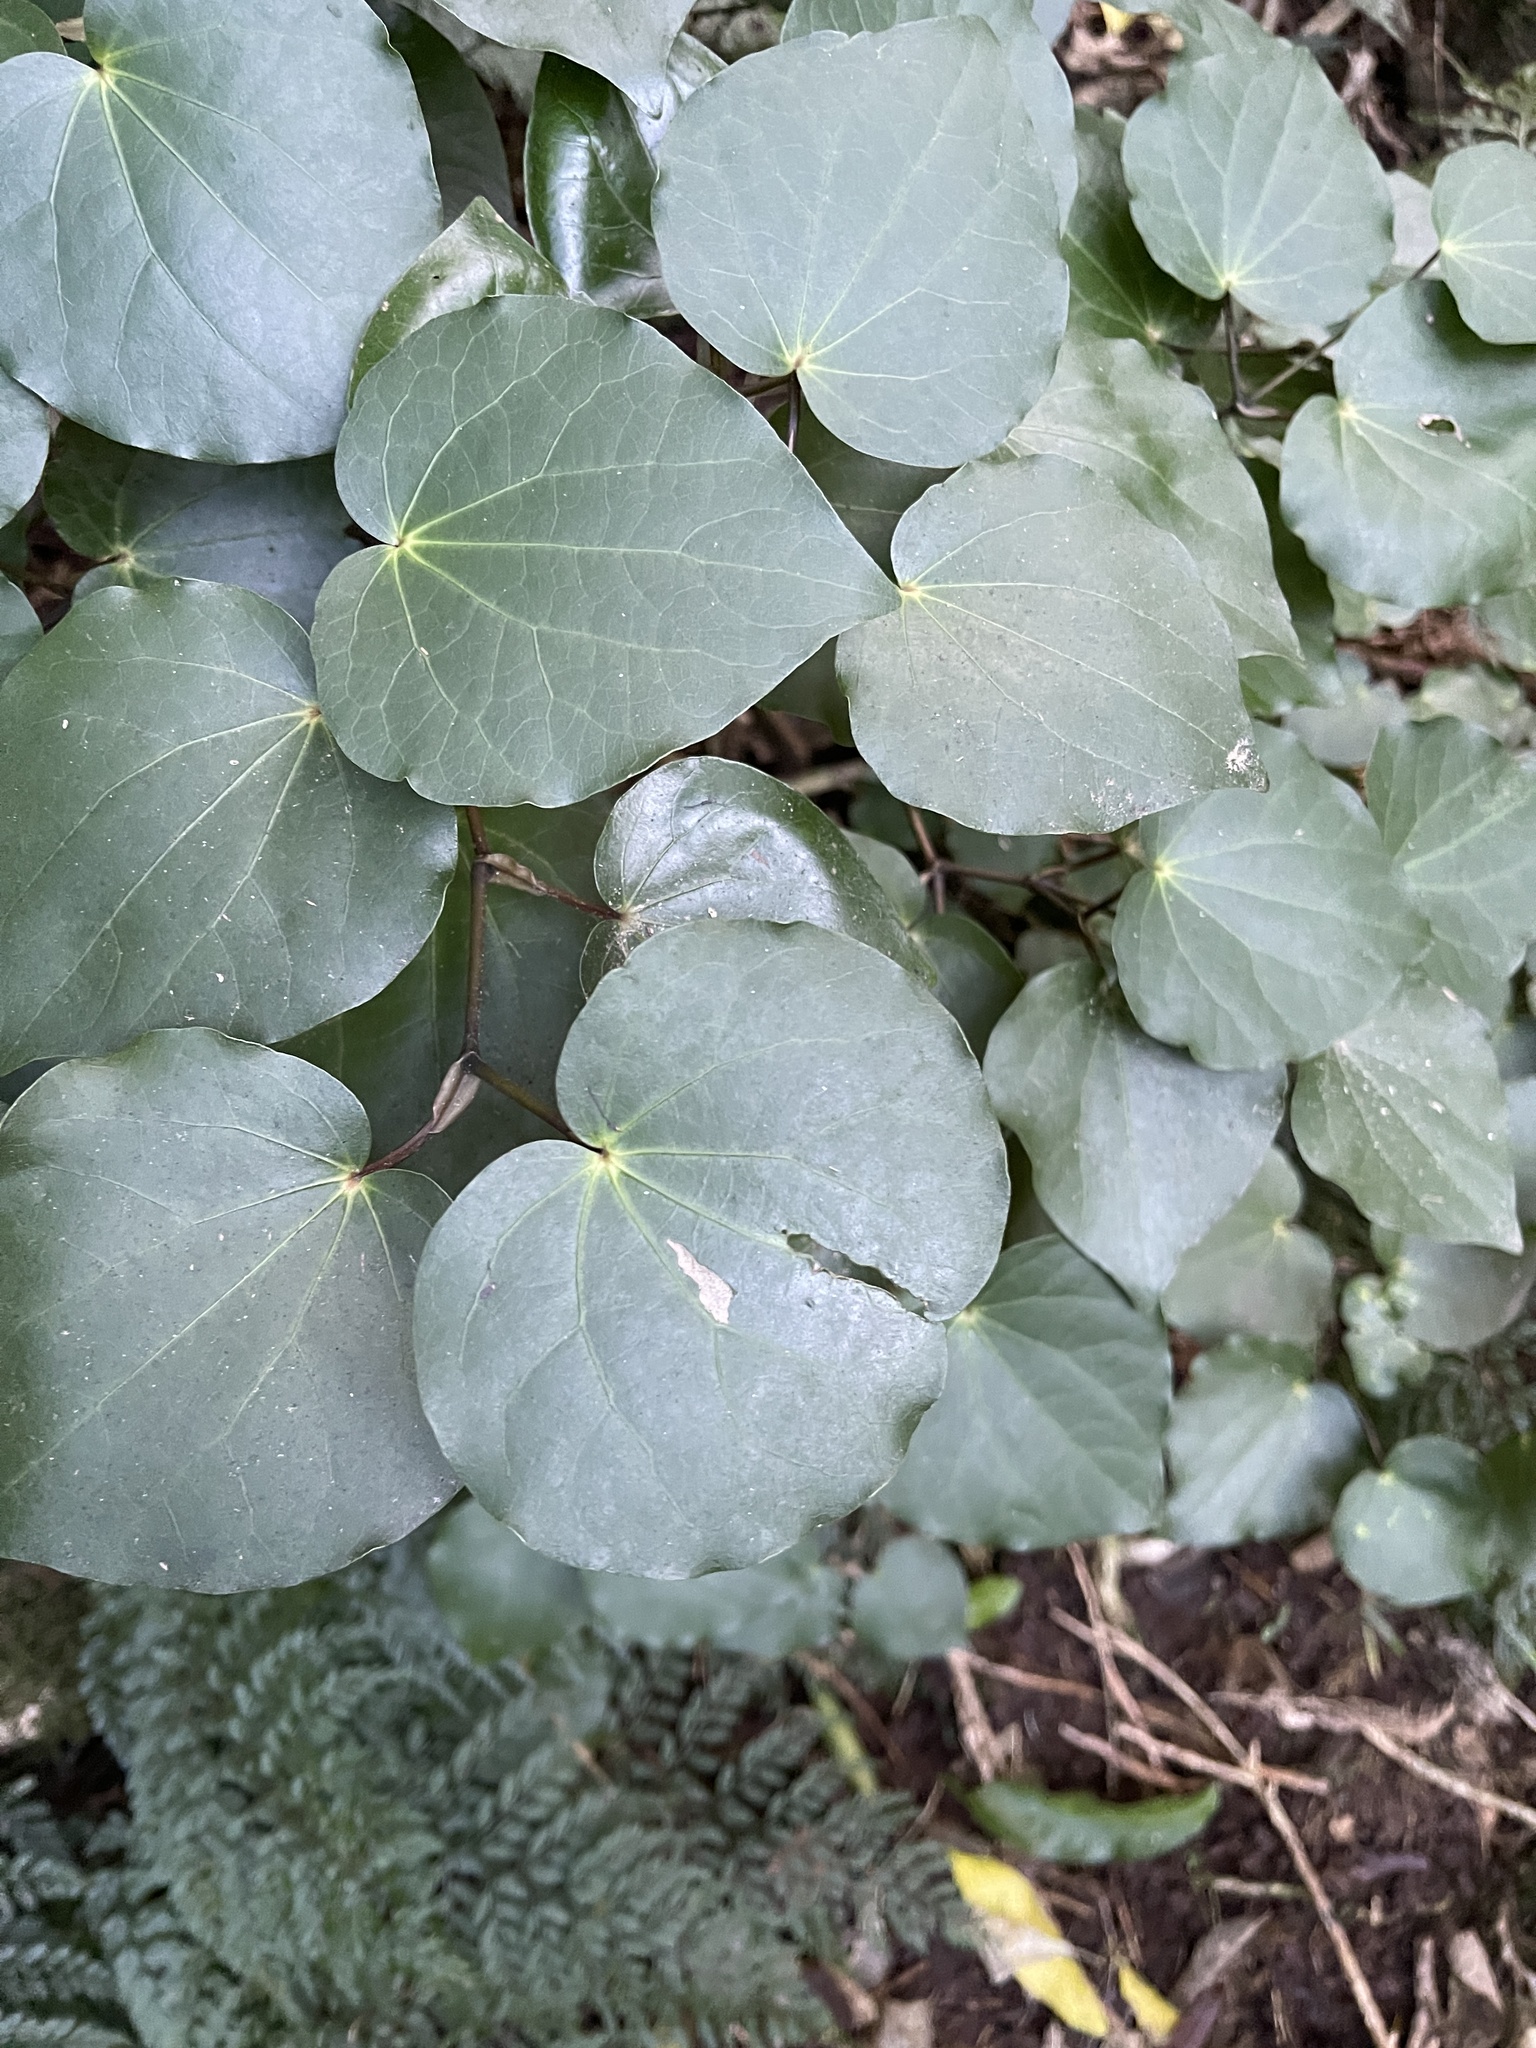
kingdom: Plantae
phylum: Tracheophyta
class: Magnoliopsida
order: Piperales
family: Piperaceae
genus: Macropiper
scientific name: Macropiper excelsum
